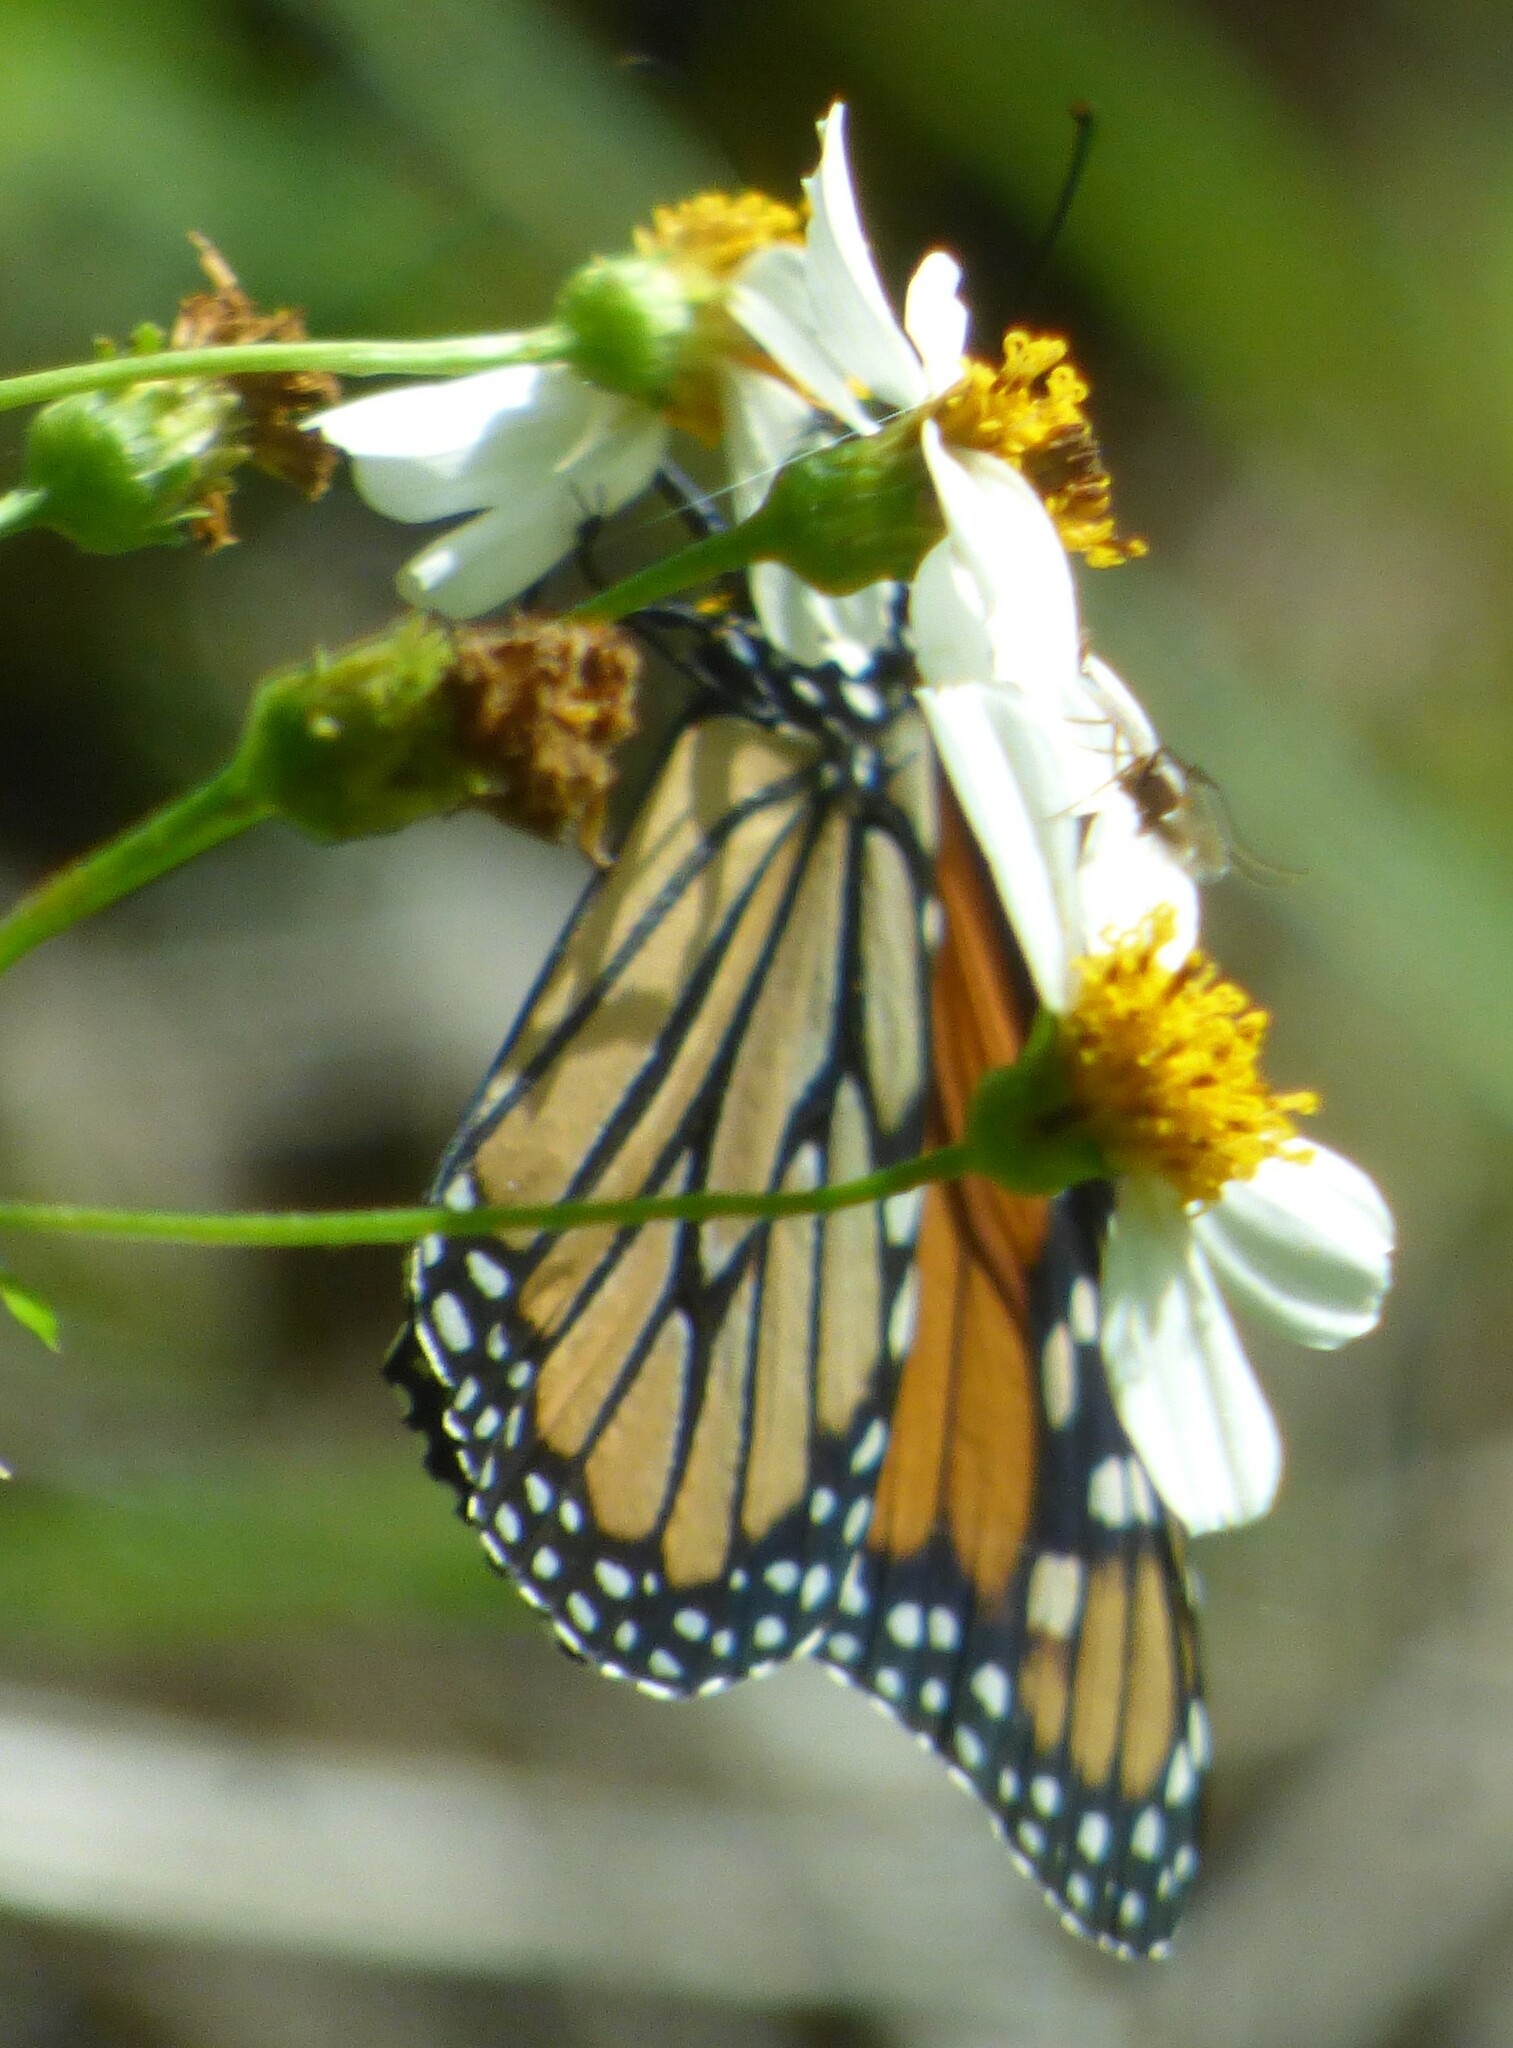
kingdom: Animalia
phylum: Arthropoda
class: Insecta
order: Lepidoptera
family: Nymphalidae
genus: Danaus
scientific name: Danaus plexippus
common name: Monarch
